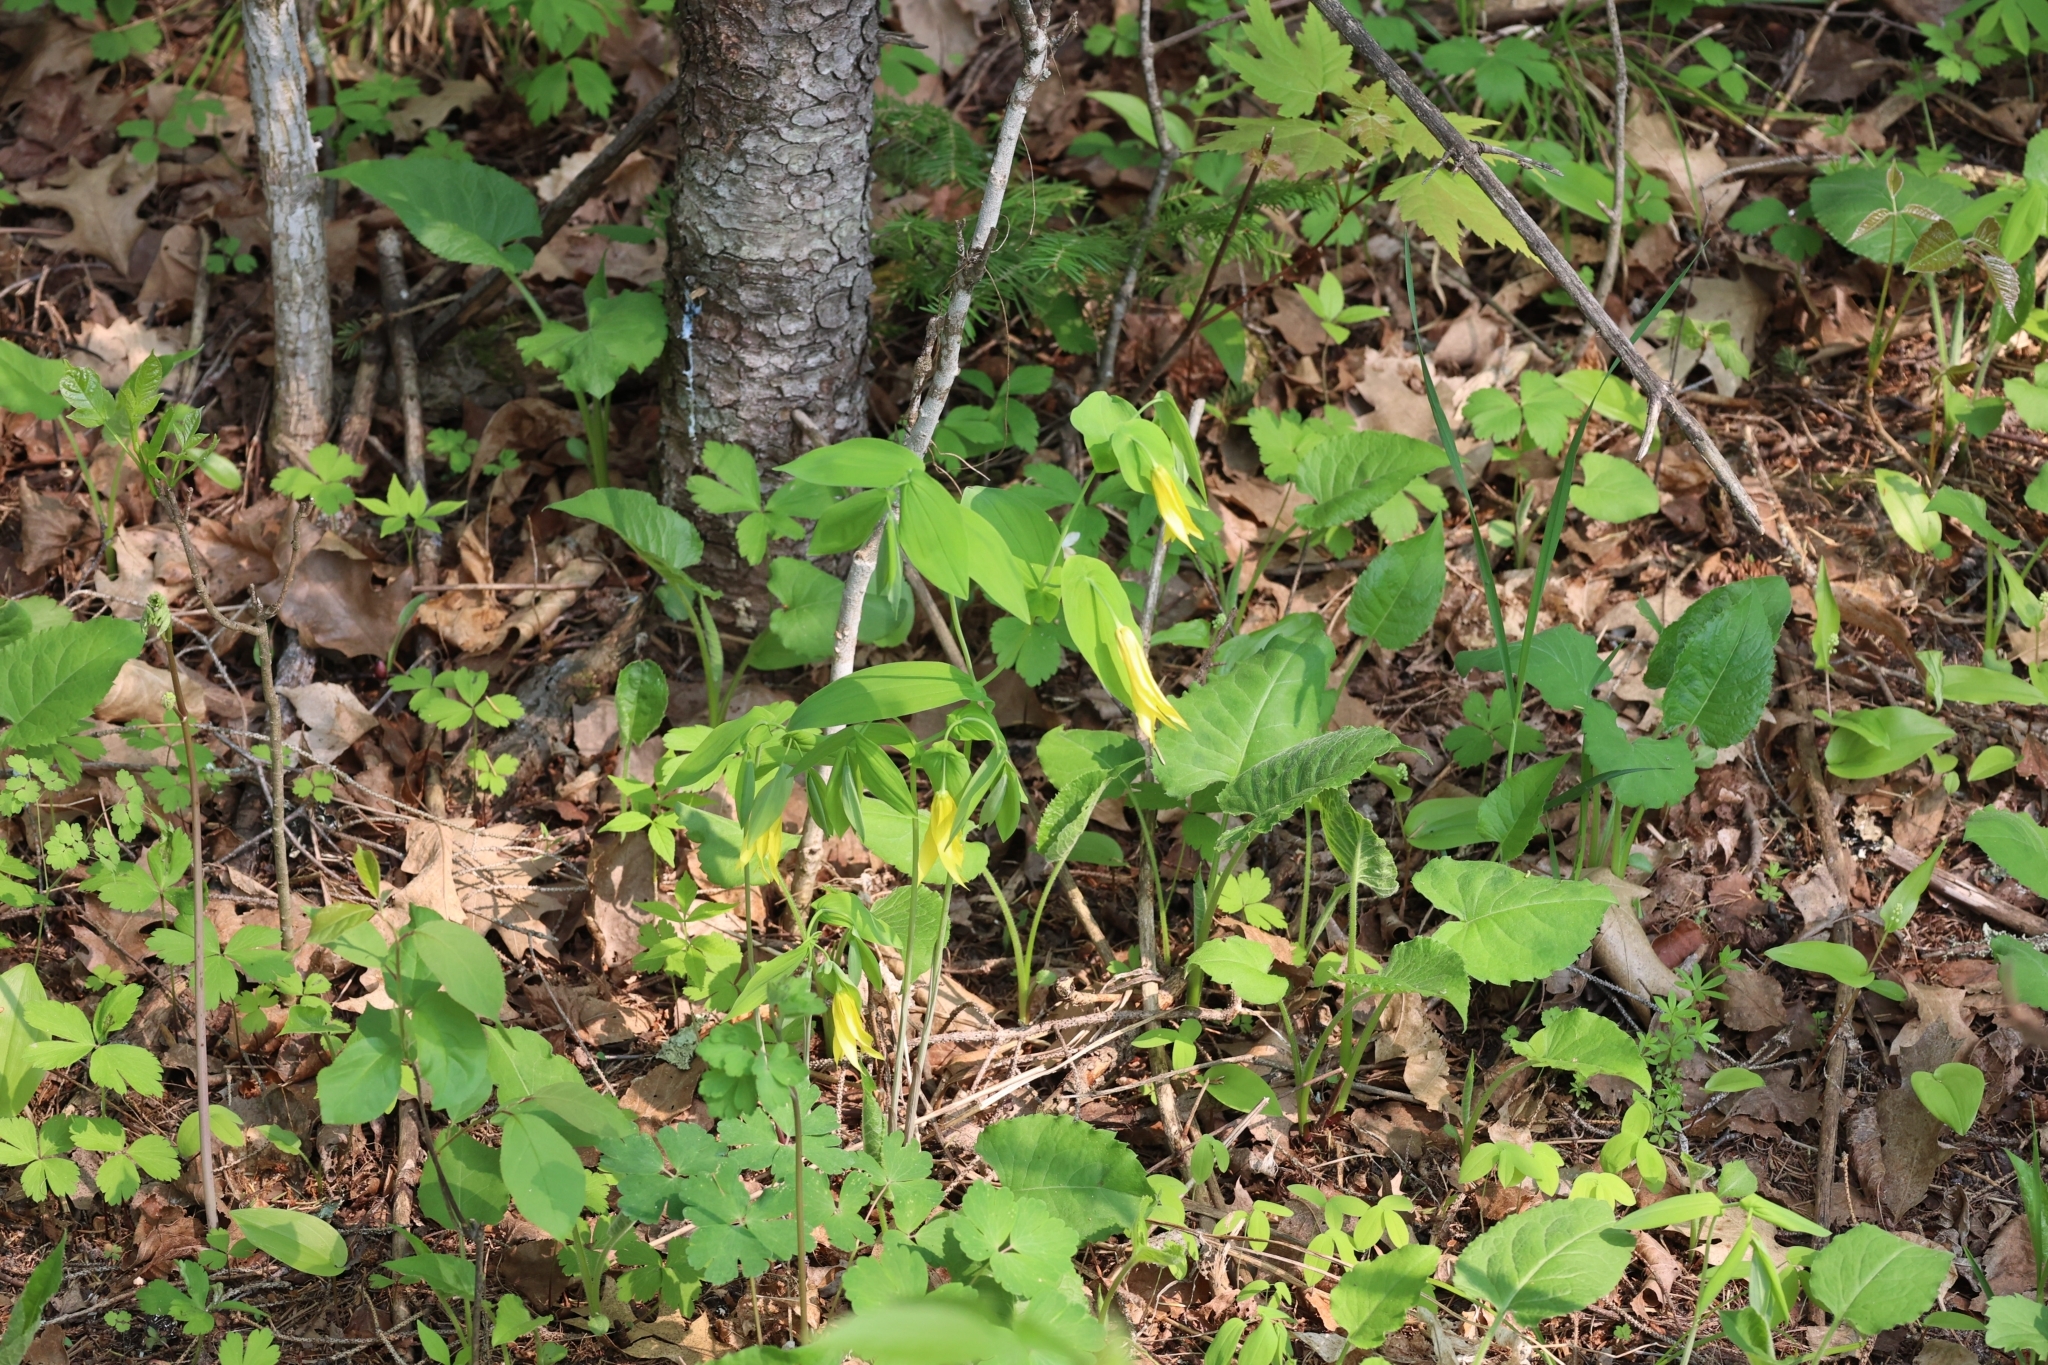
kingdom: Plantae
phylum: Tracheophyta
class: Liliopsida
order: Liliales
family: Colchicaceae
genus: Uvularia
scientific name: Uvularia grandiflora
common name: Bellwort
